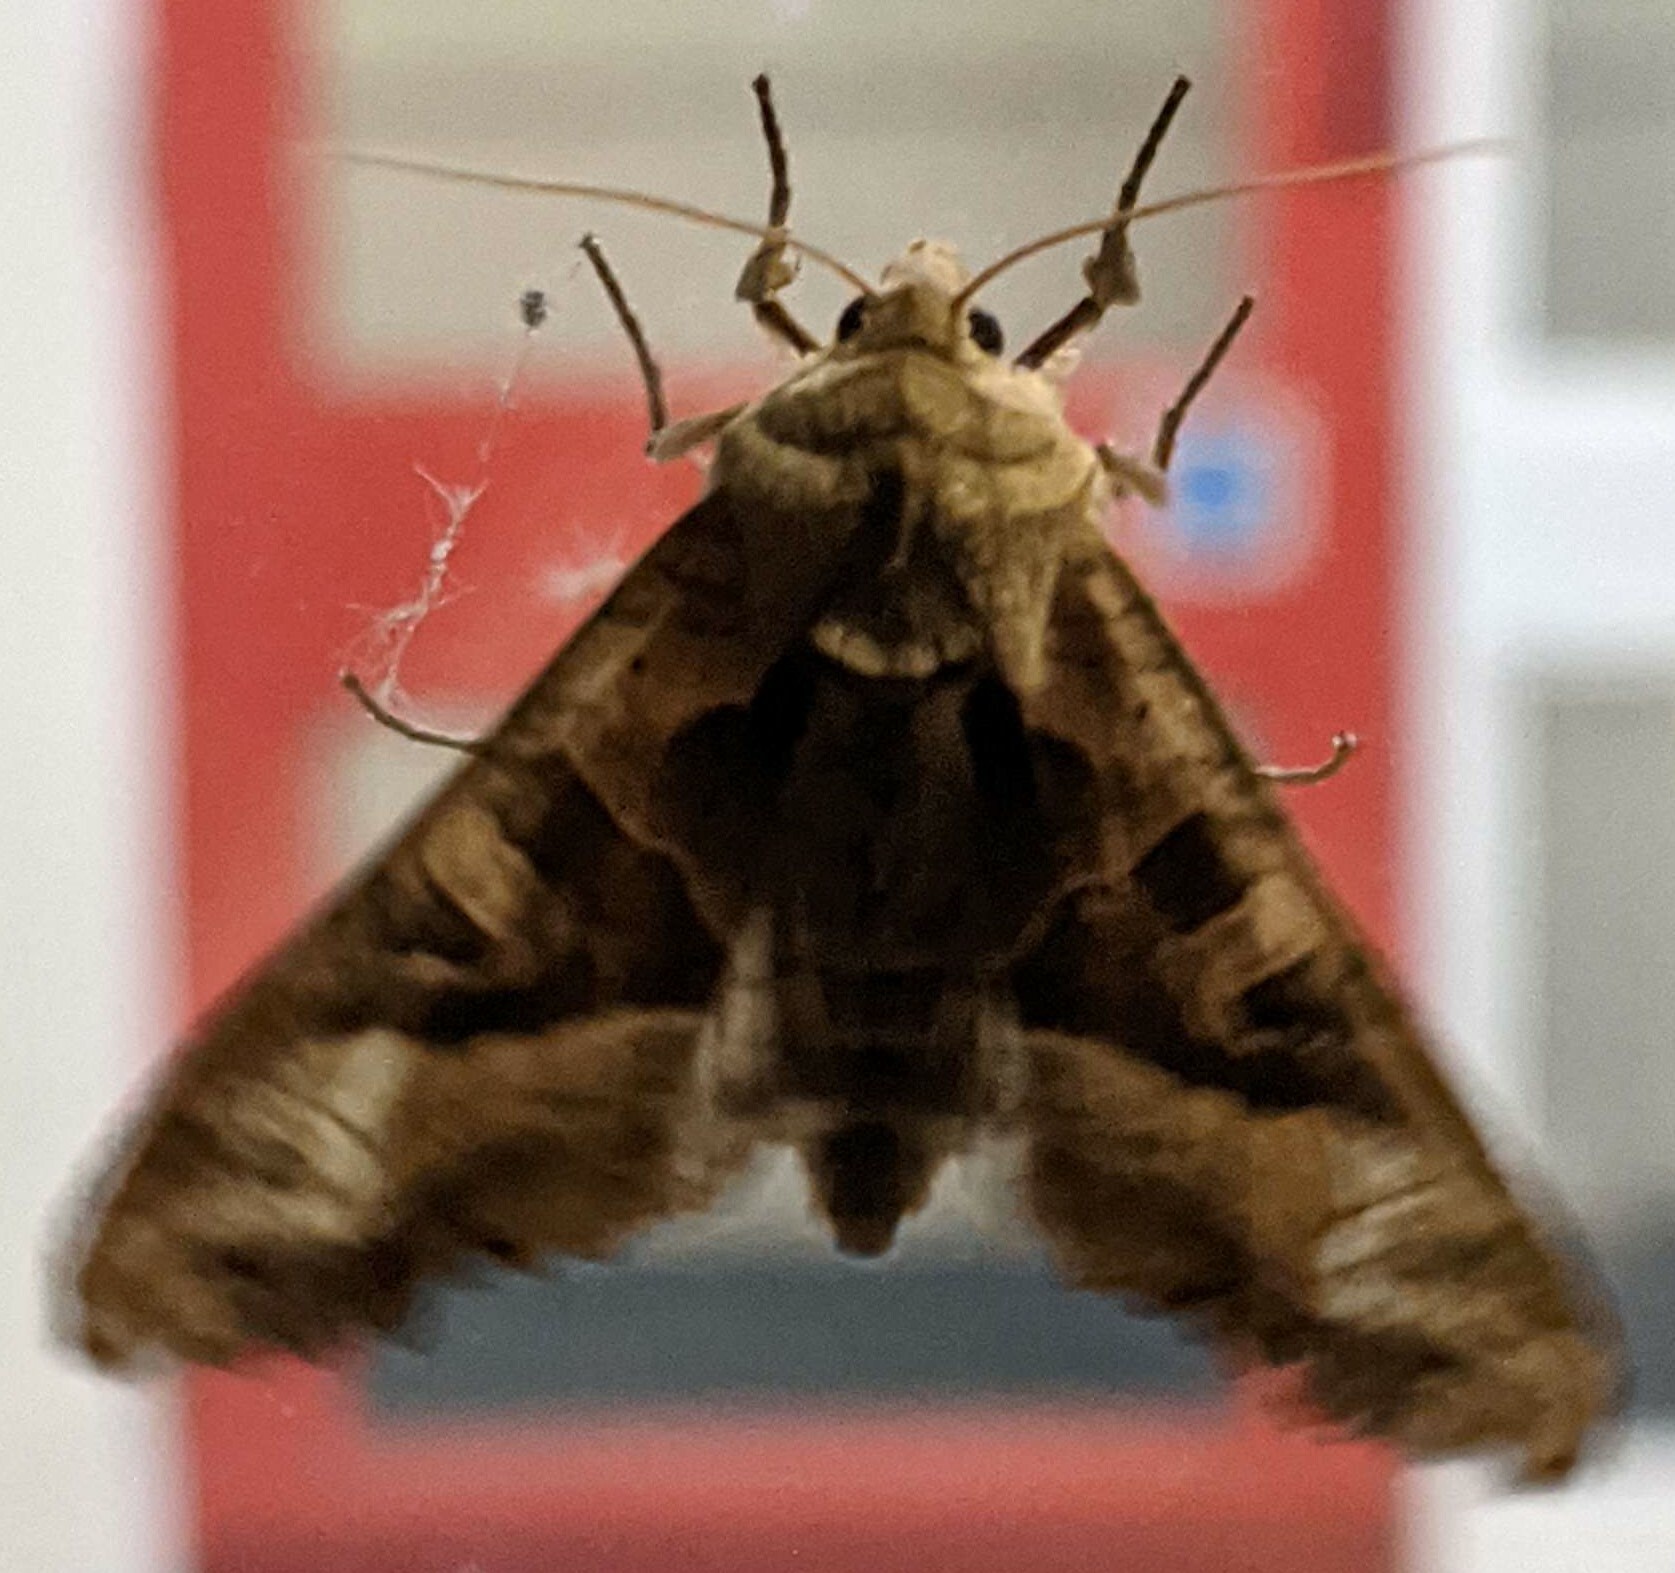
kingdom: Animalia
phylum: Arthropoda
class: Insecta
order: Lepidoptera
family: Noctuidae
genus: Phlogophora
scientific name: Phlogophora meticulosa
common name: Angle shades
